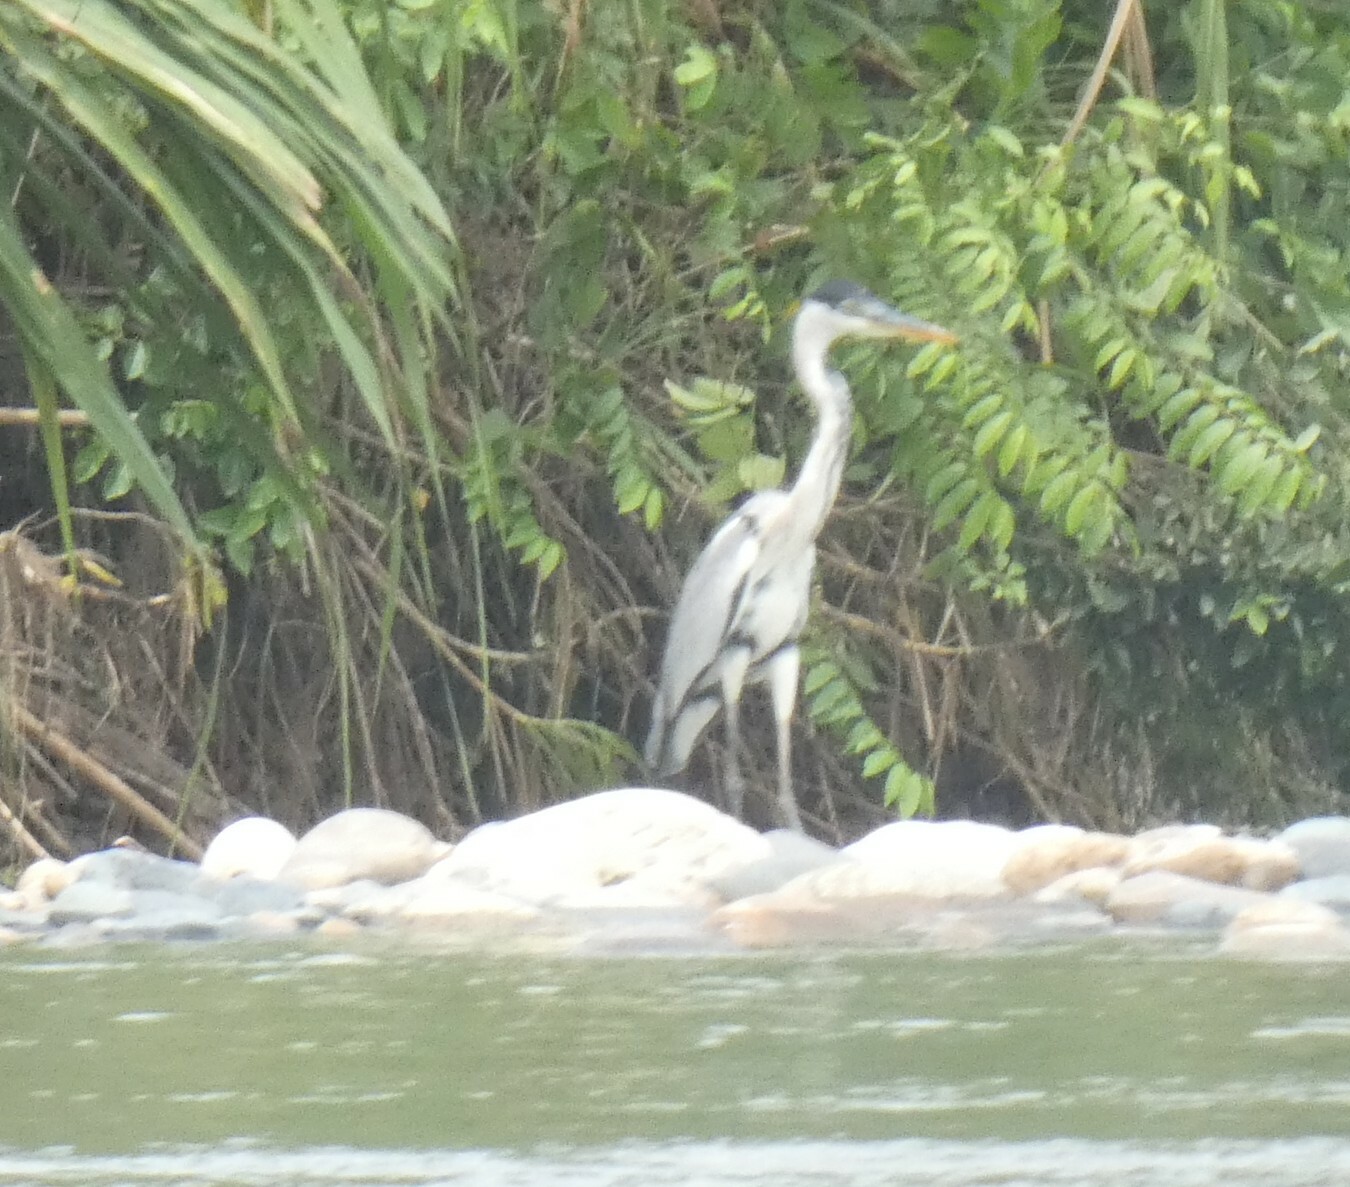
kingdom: Animalia
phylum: Chordata
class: Aves
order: Pelecaniformes
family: Ardeidae
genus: Ardea
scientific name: Ardea cocoi
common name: Cocoi heron
